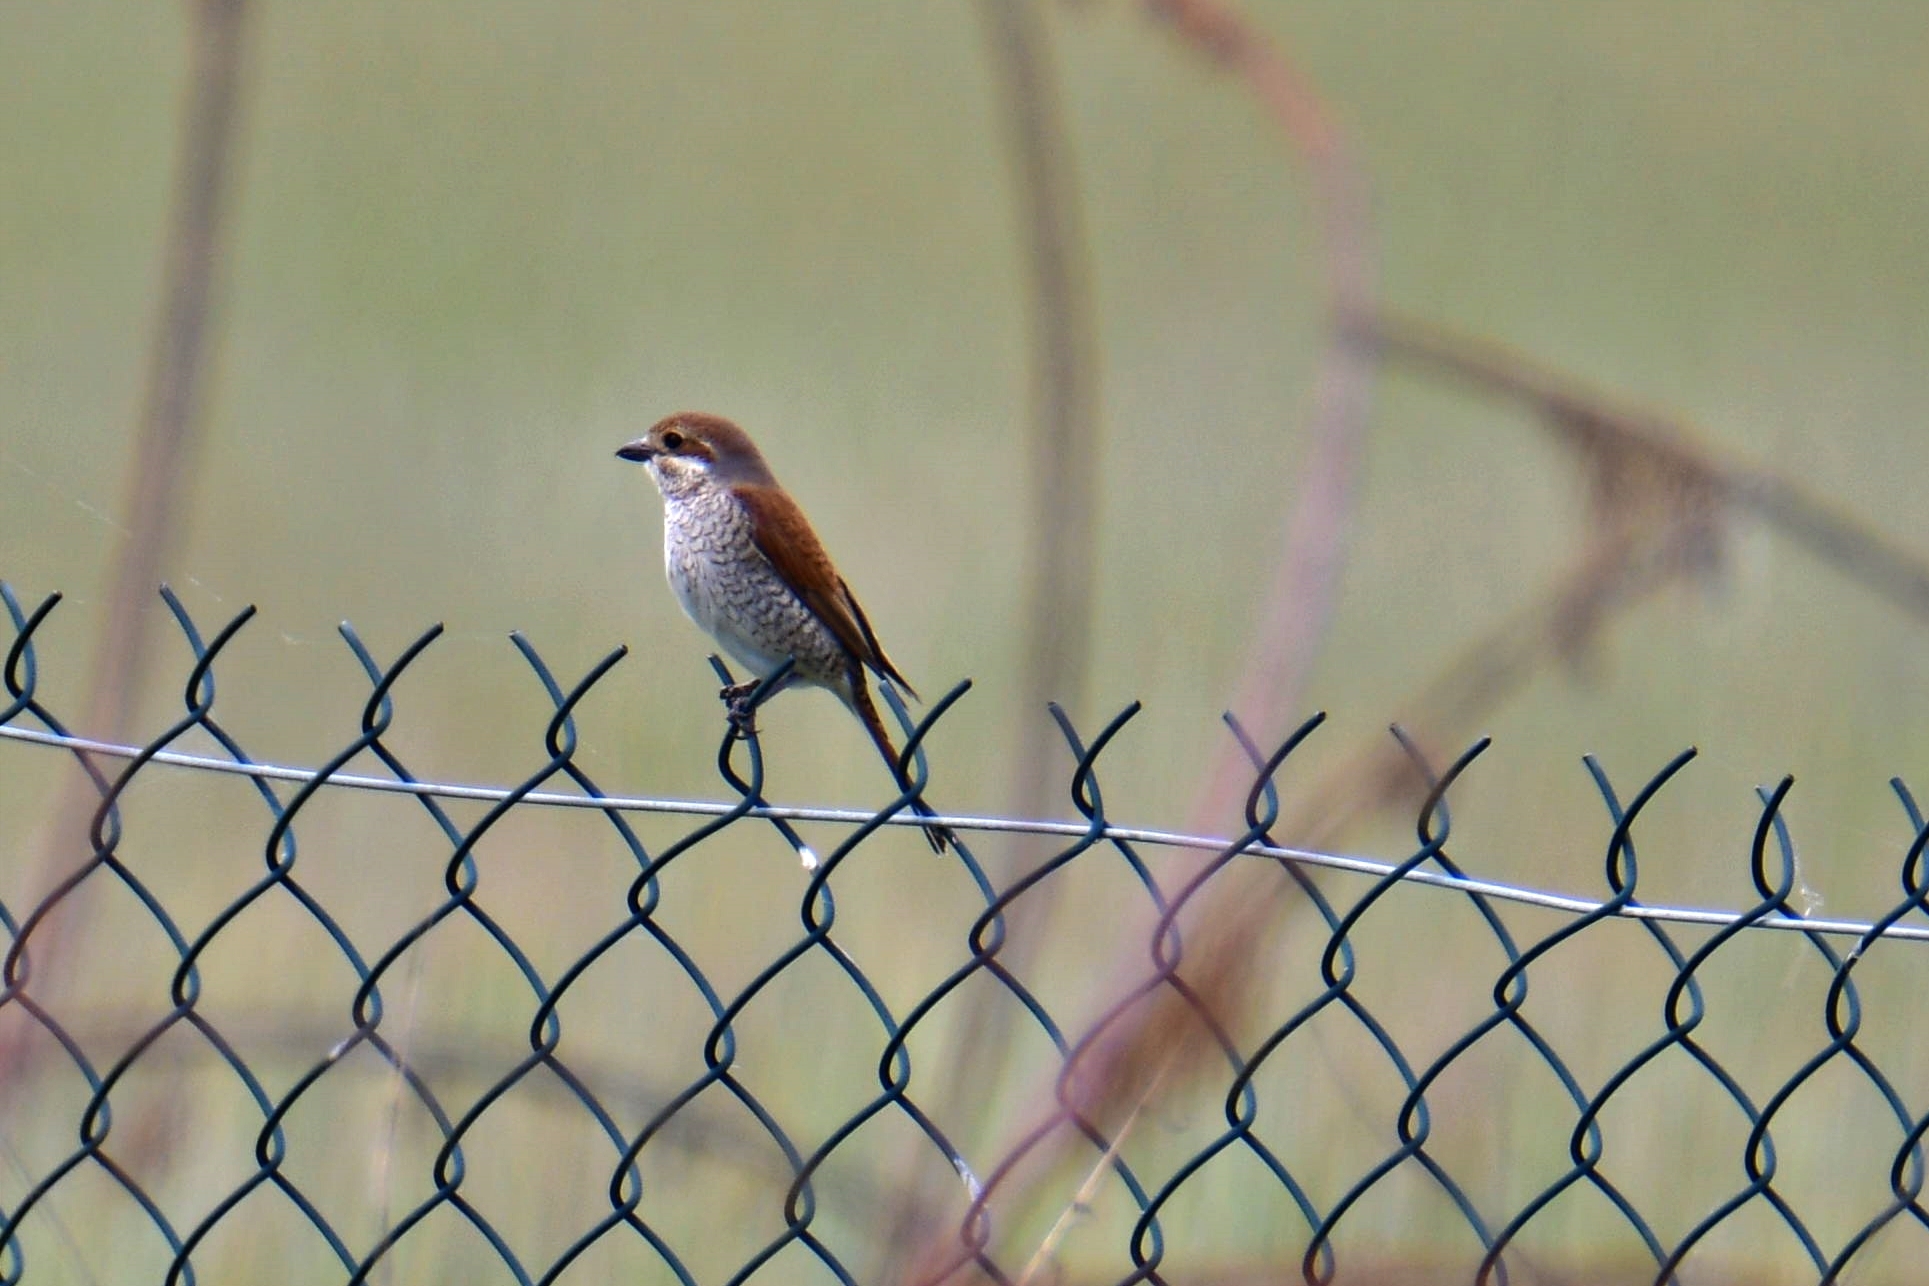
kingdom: Animalia
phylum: Chordata
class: Aves
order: Passeriformes
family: Laniidae
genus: Lanius
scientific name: Lanius collurio
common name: Red-backed shrike
